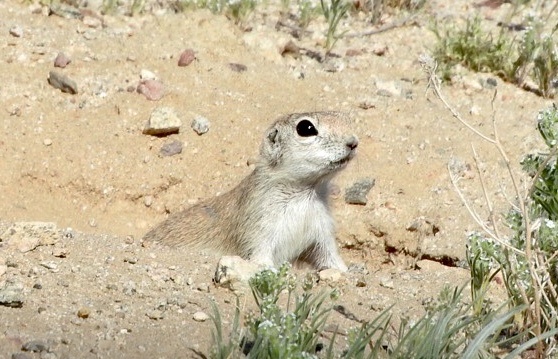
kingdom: Animalia
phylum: Chordata
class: Mammalia
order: Rodentia
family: Sciuridae
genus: Xerospermophilus
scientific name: Xerospermophilus tereticaudus
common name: Round-tailed ground squirrel
